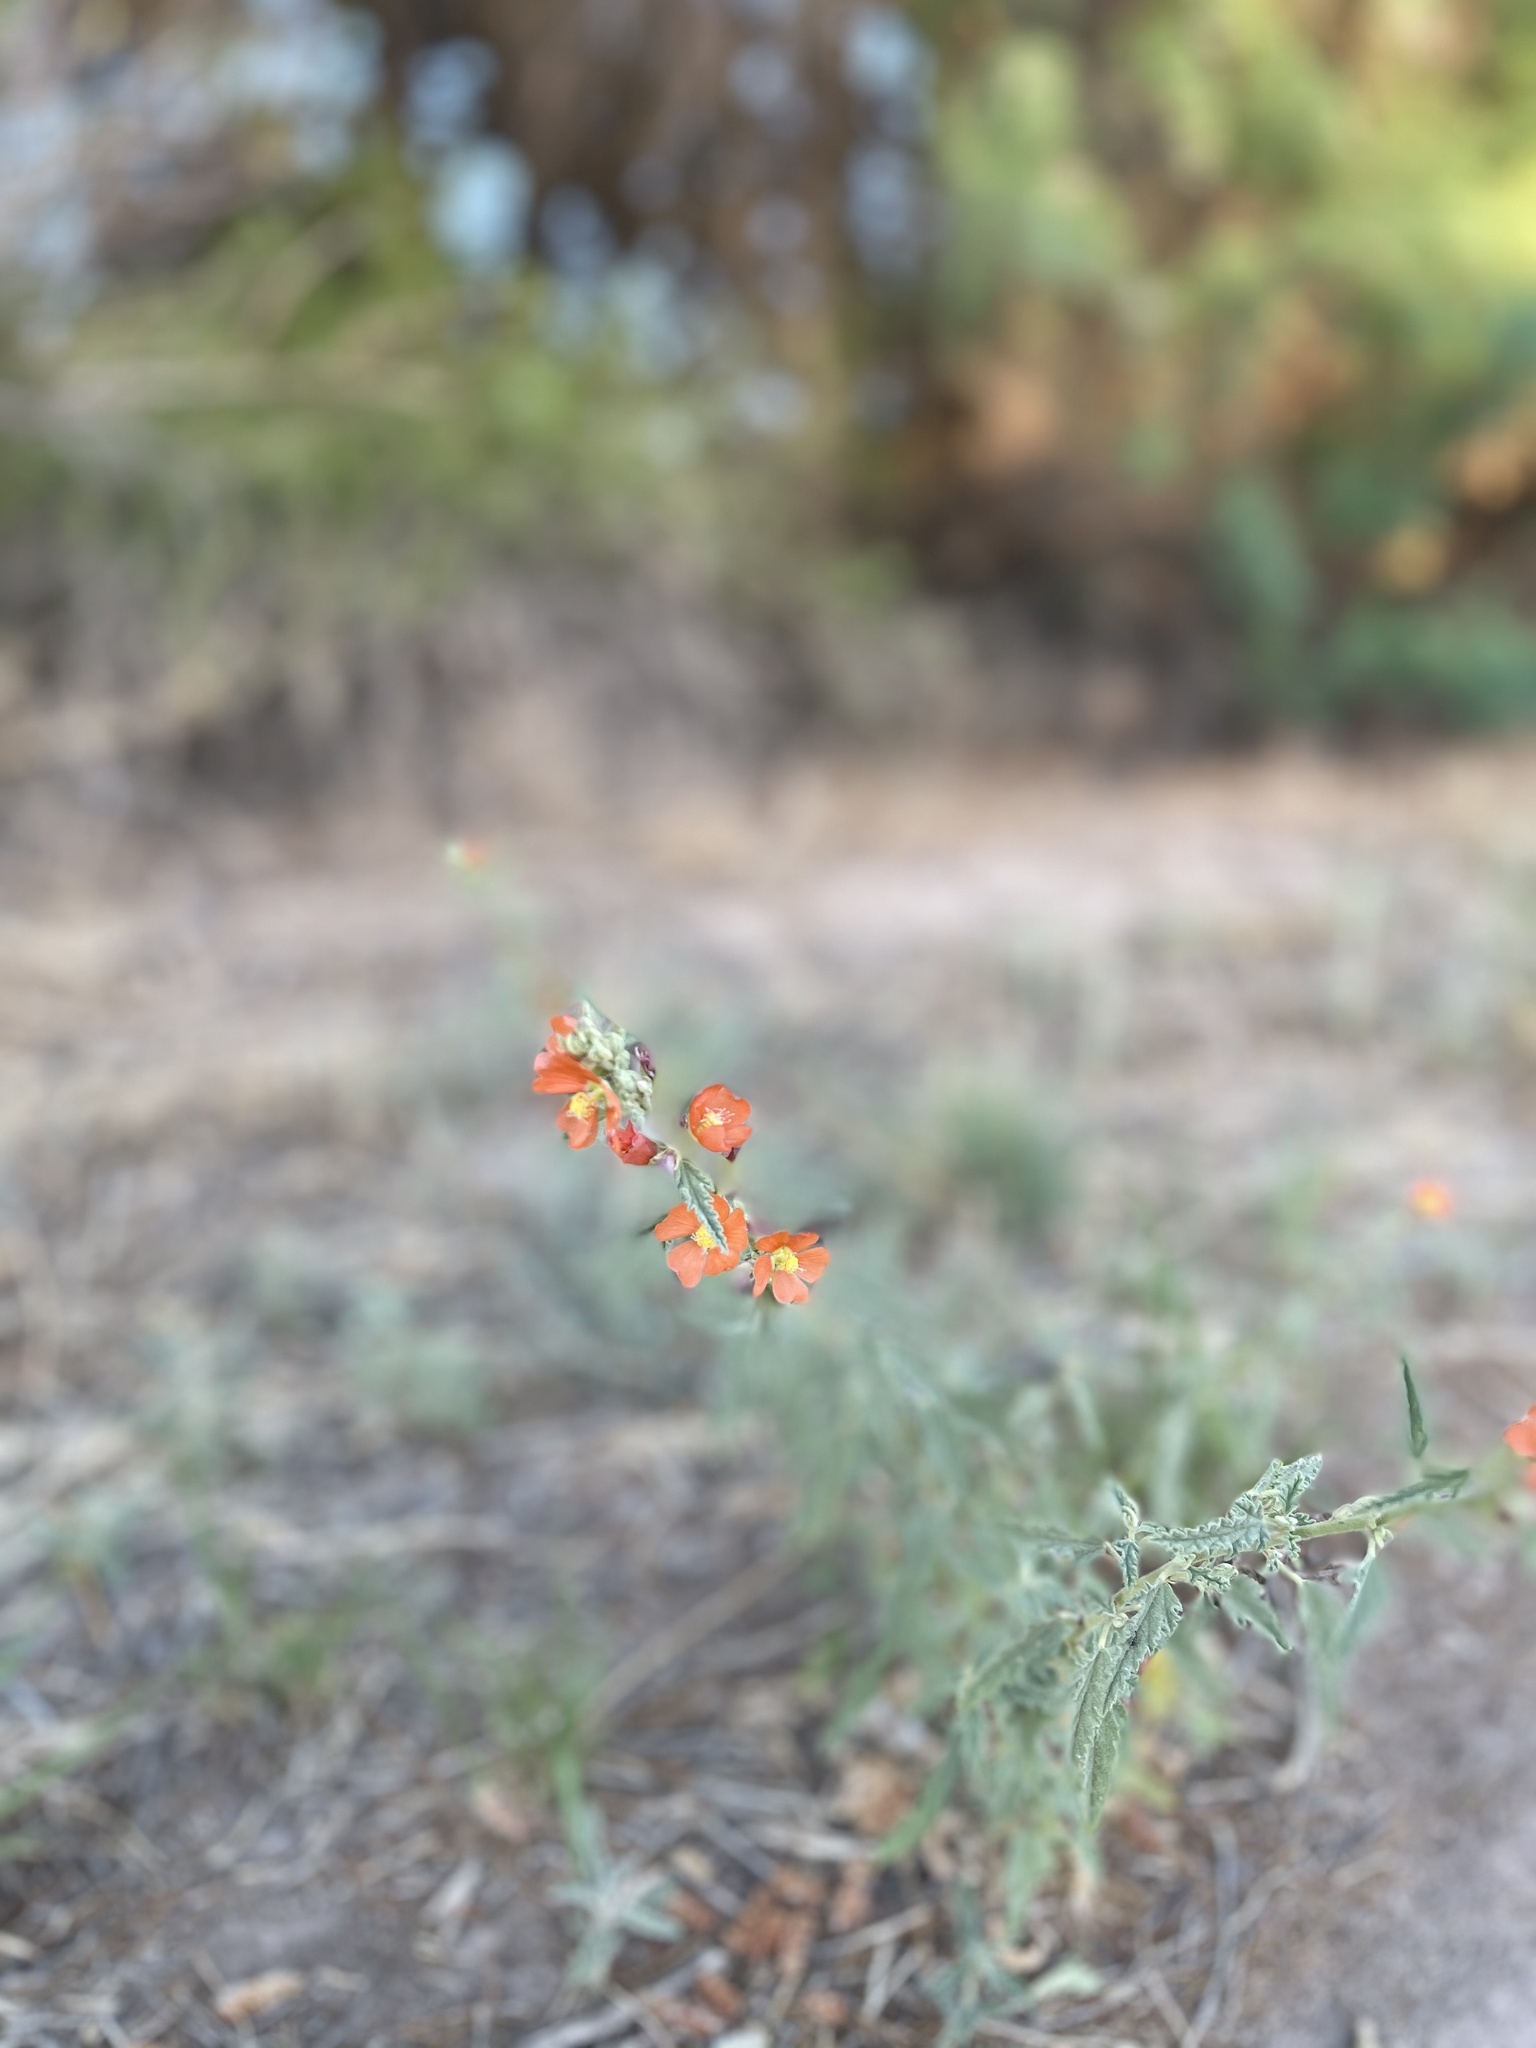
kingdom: Plantae
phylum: Tracheophyta
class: Magnoliopsida
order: Malvales
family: Malvaceae
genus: Sphaeralcea
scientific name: Sphaeralcea coccinea
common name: Moss-rose
